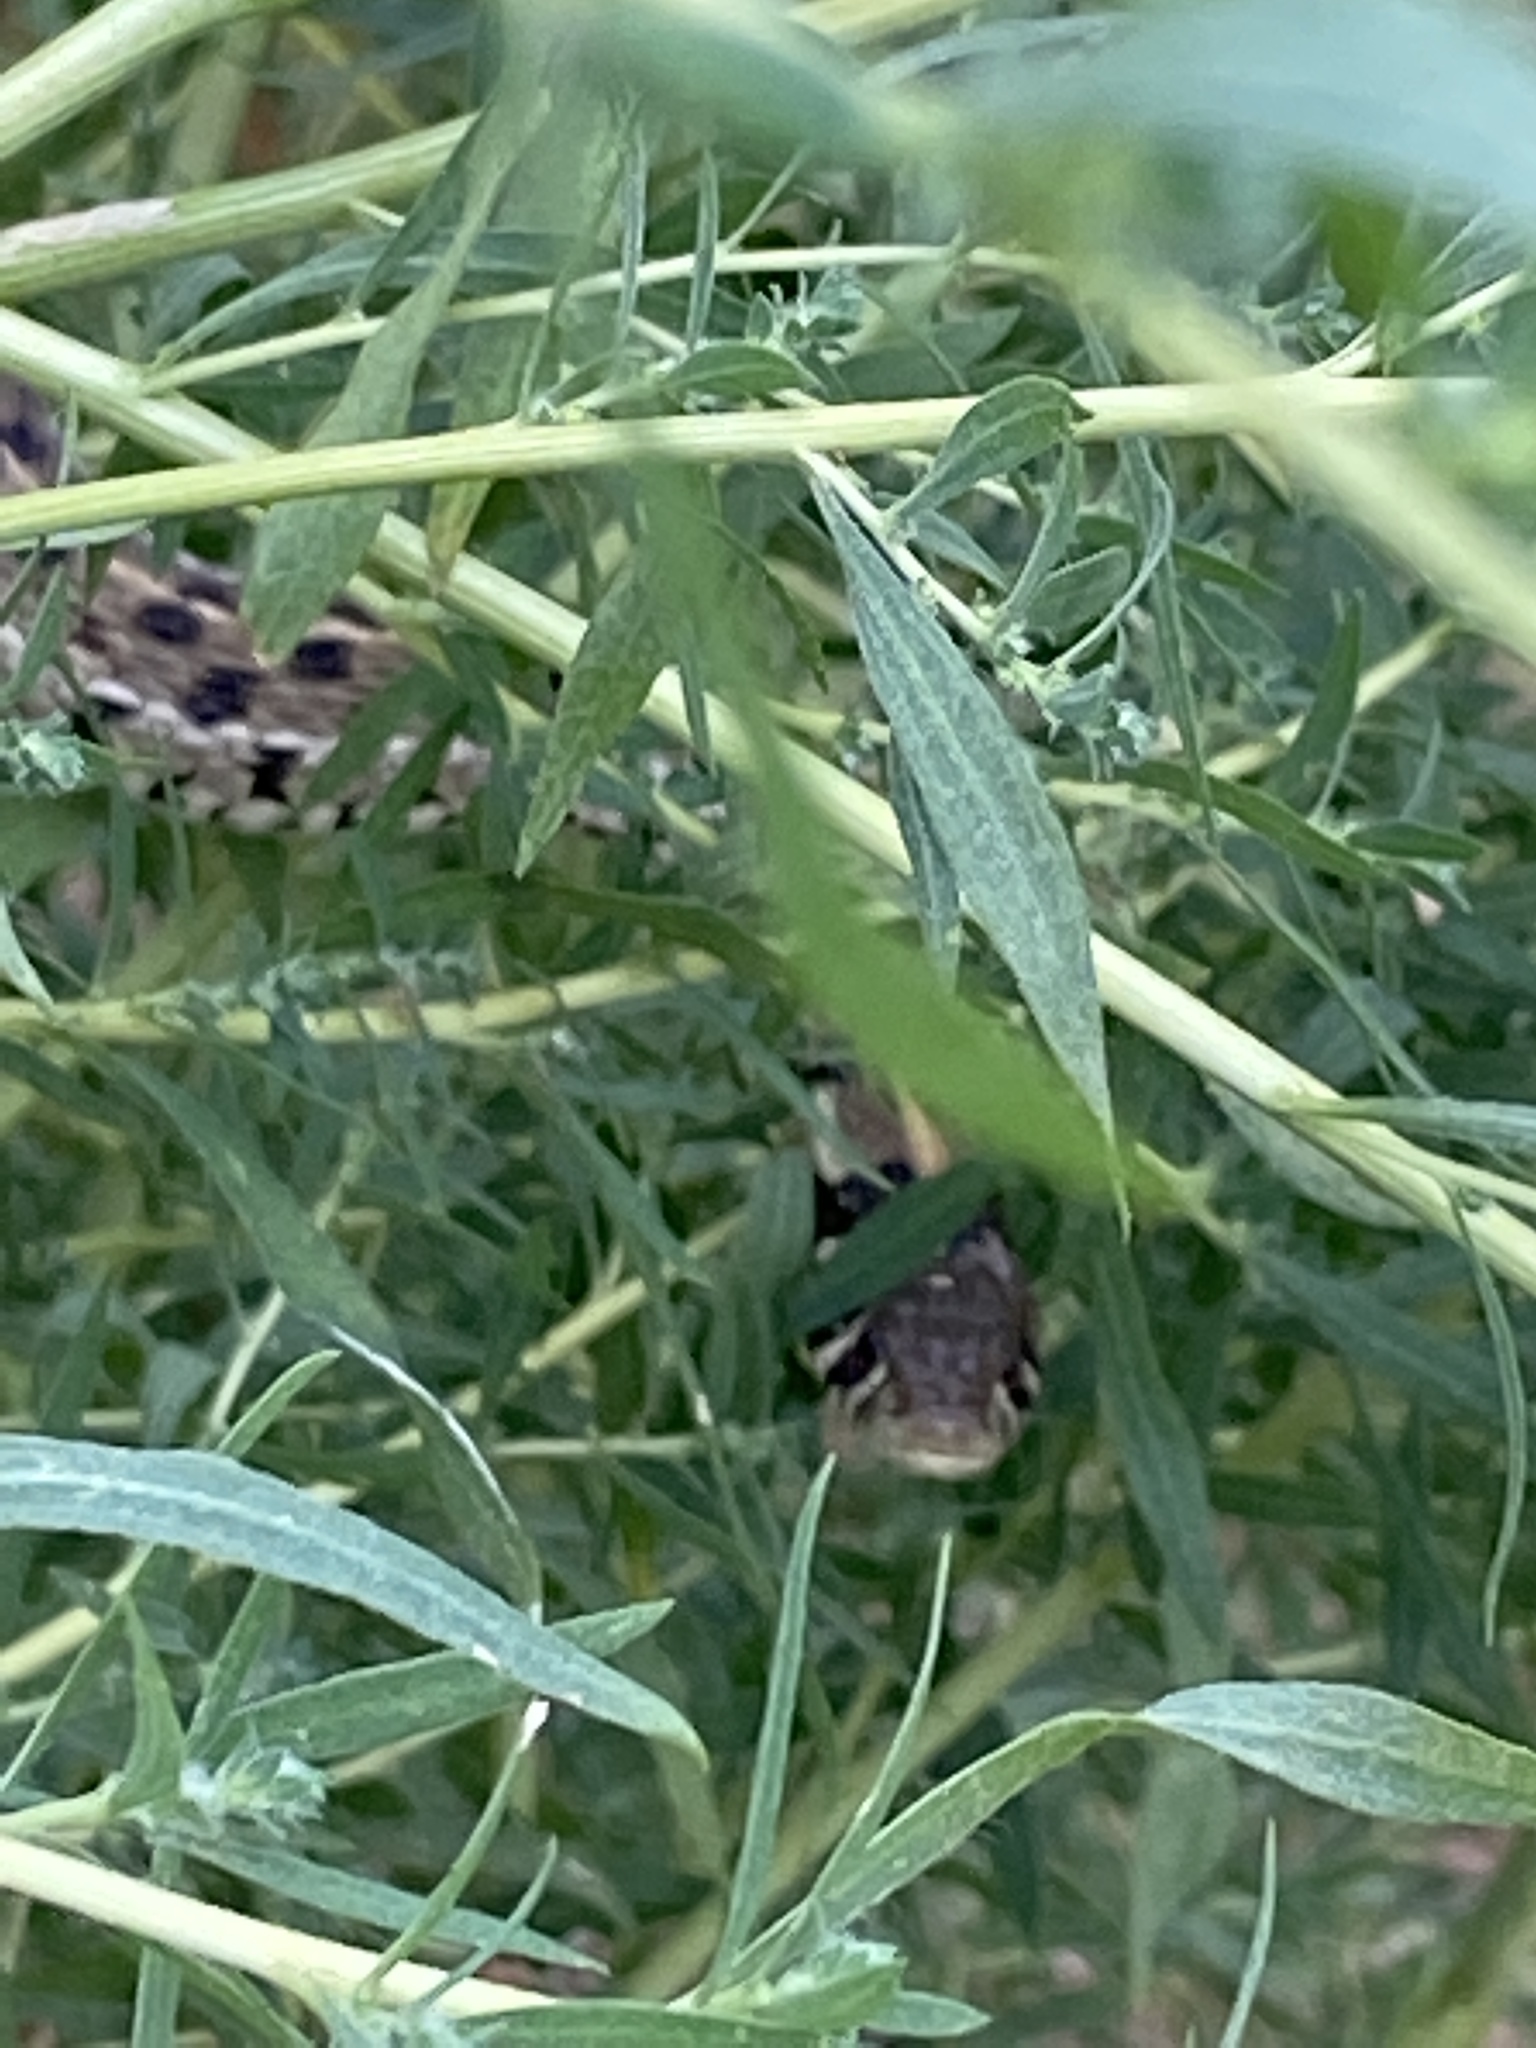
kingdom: Animalia
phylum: Chordata
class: Squamata
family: Colubridae
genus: Thamnophis
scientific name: Thamnophis marcianus
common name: Checkered garter snake
